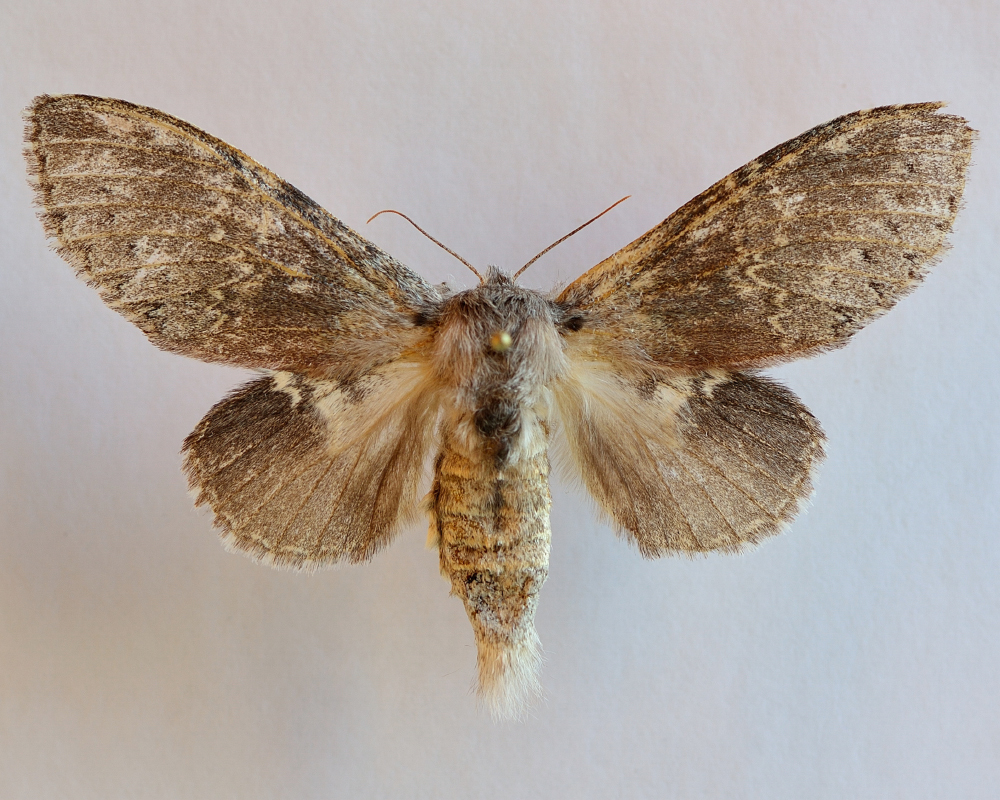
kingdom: Animalia
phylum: Arthropoda
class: Insecta
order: Lepidoptera
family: Notodontidae
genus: Stauropus
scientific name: Stauropus fagi
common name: Lobster moth
